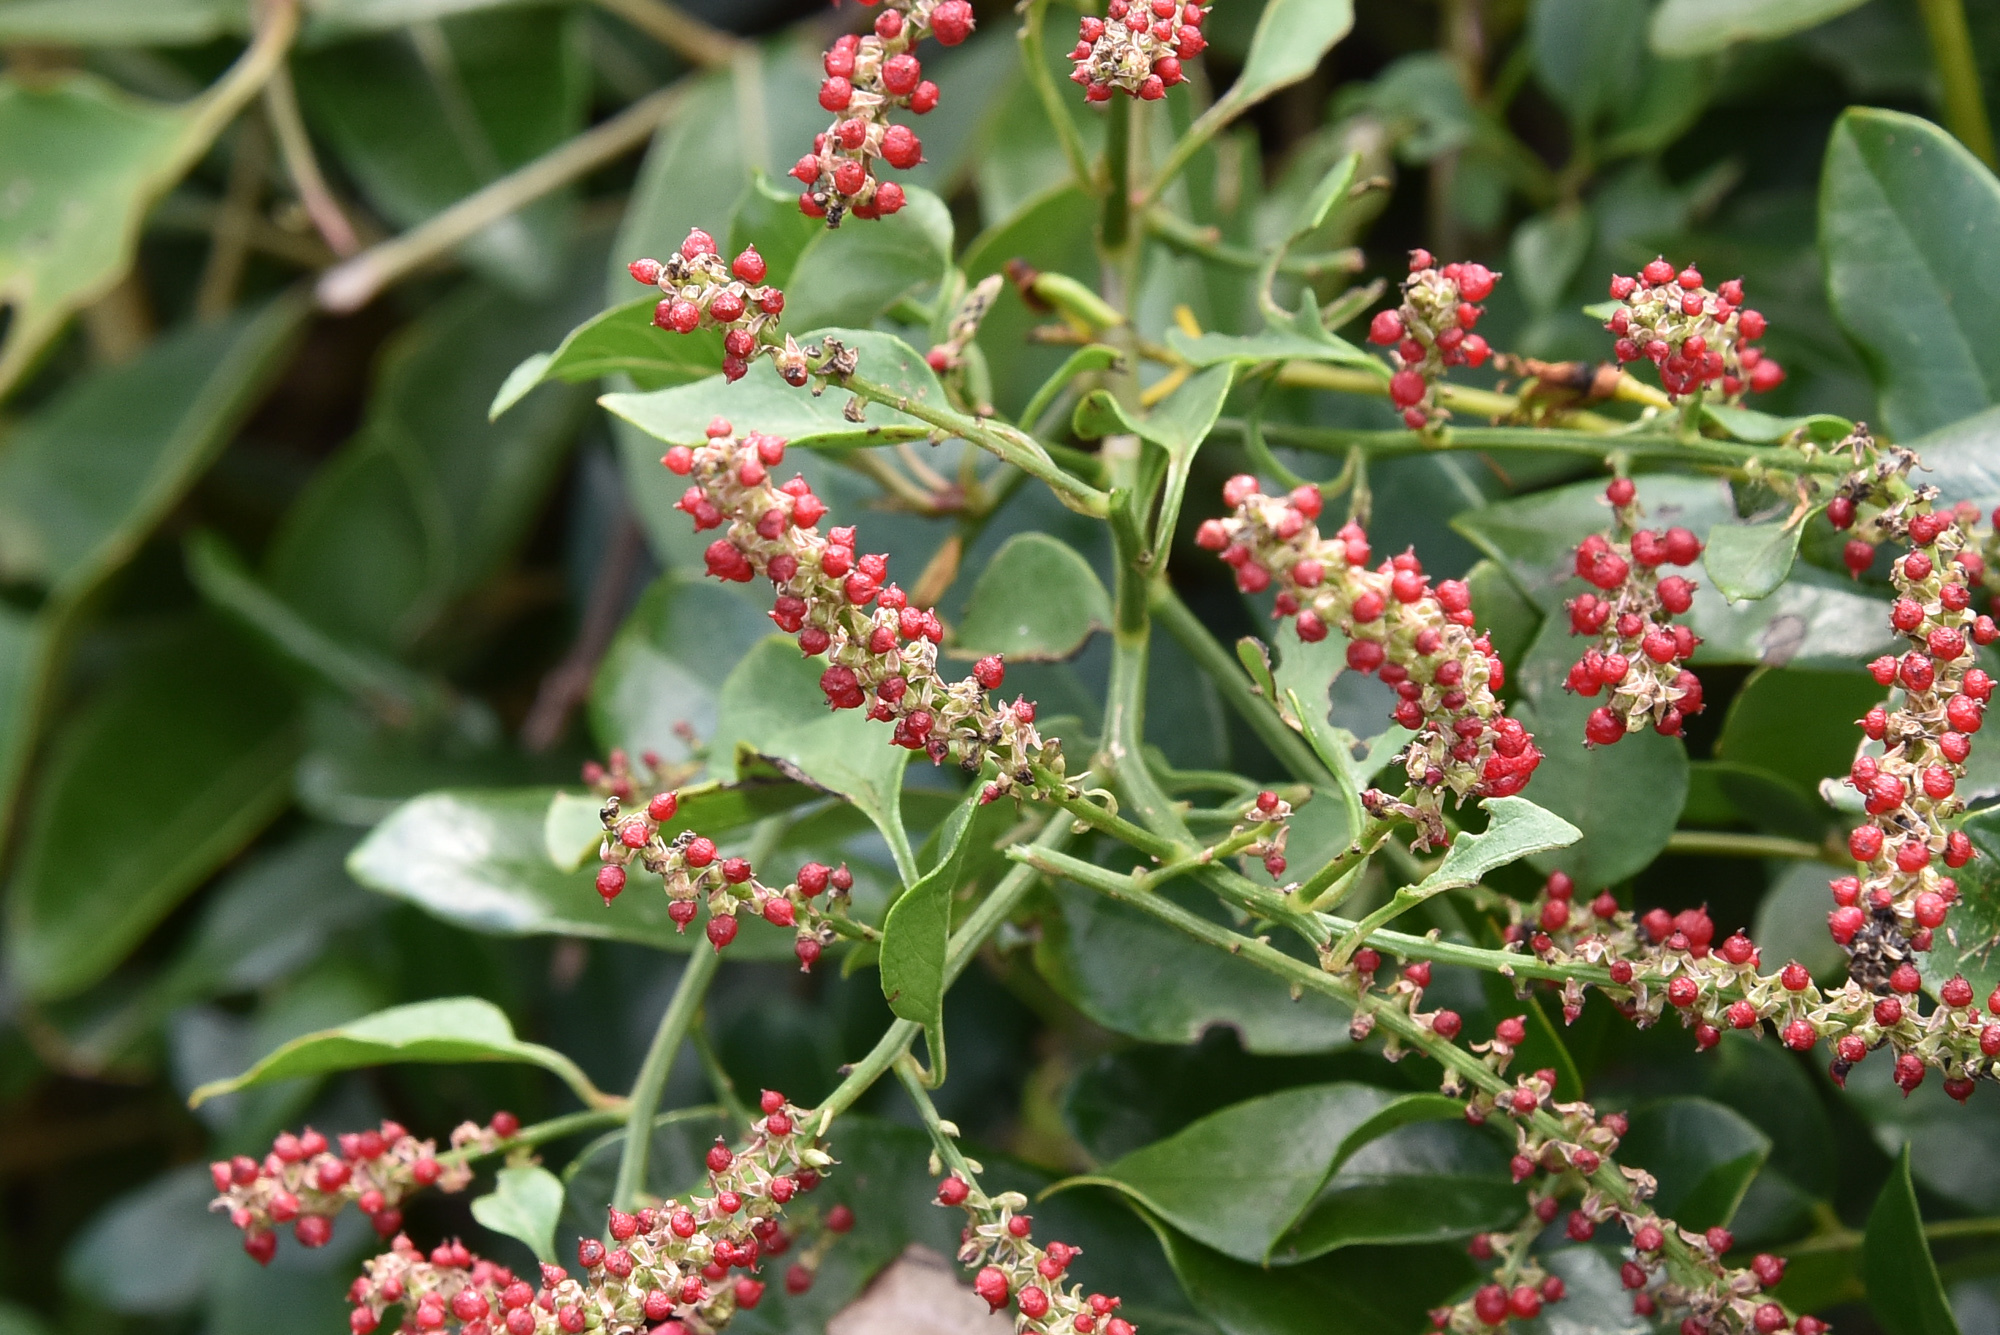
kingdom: Plantae
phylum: Tracheophyta
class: Magnoliopsida
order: Caryophyllales
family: Amaranthaceae
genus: Deeringia
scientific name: Deeringia amaranthoides
